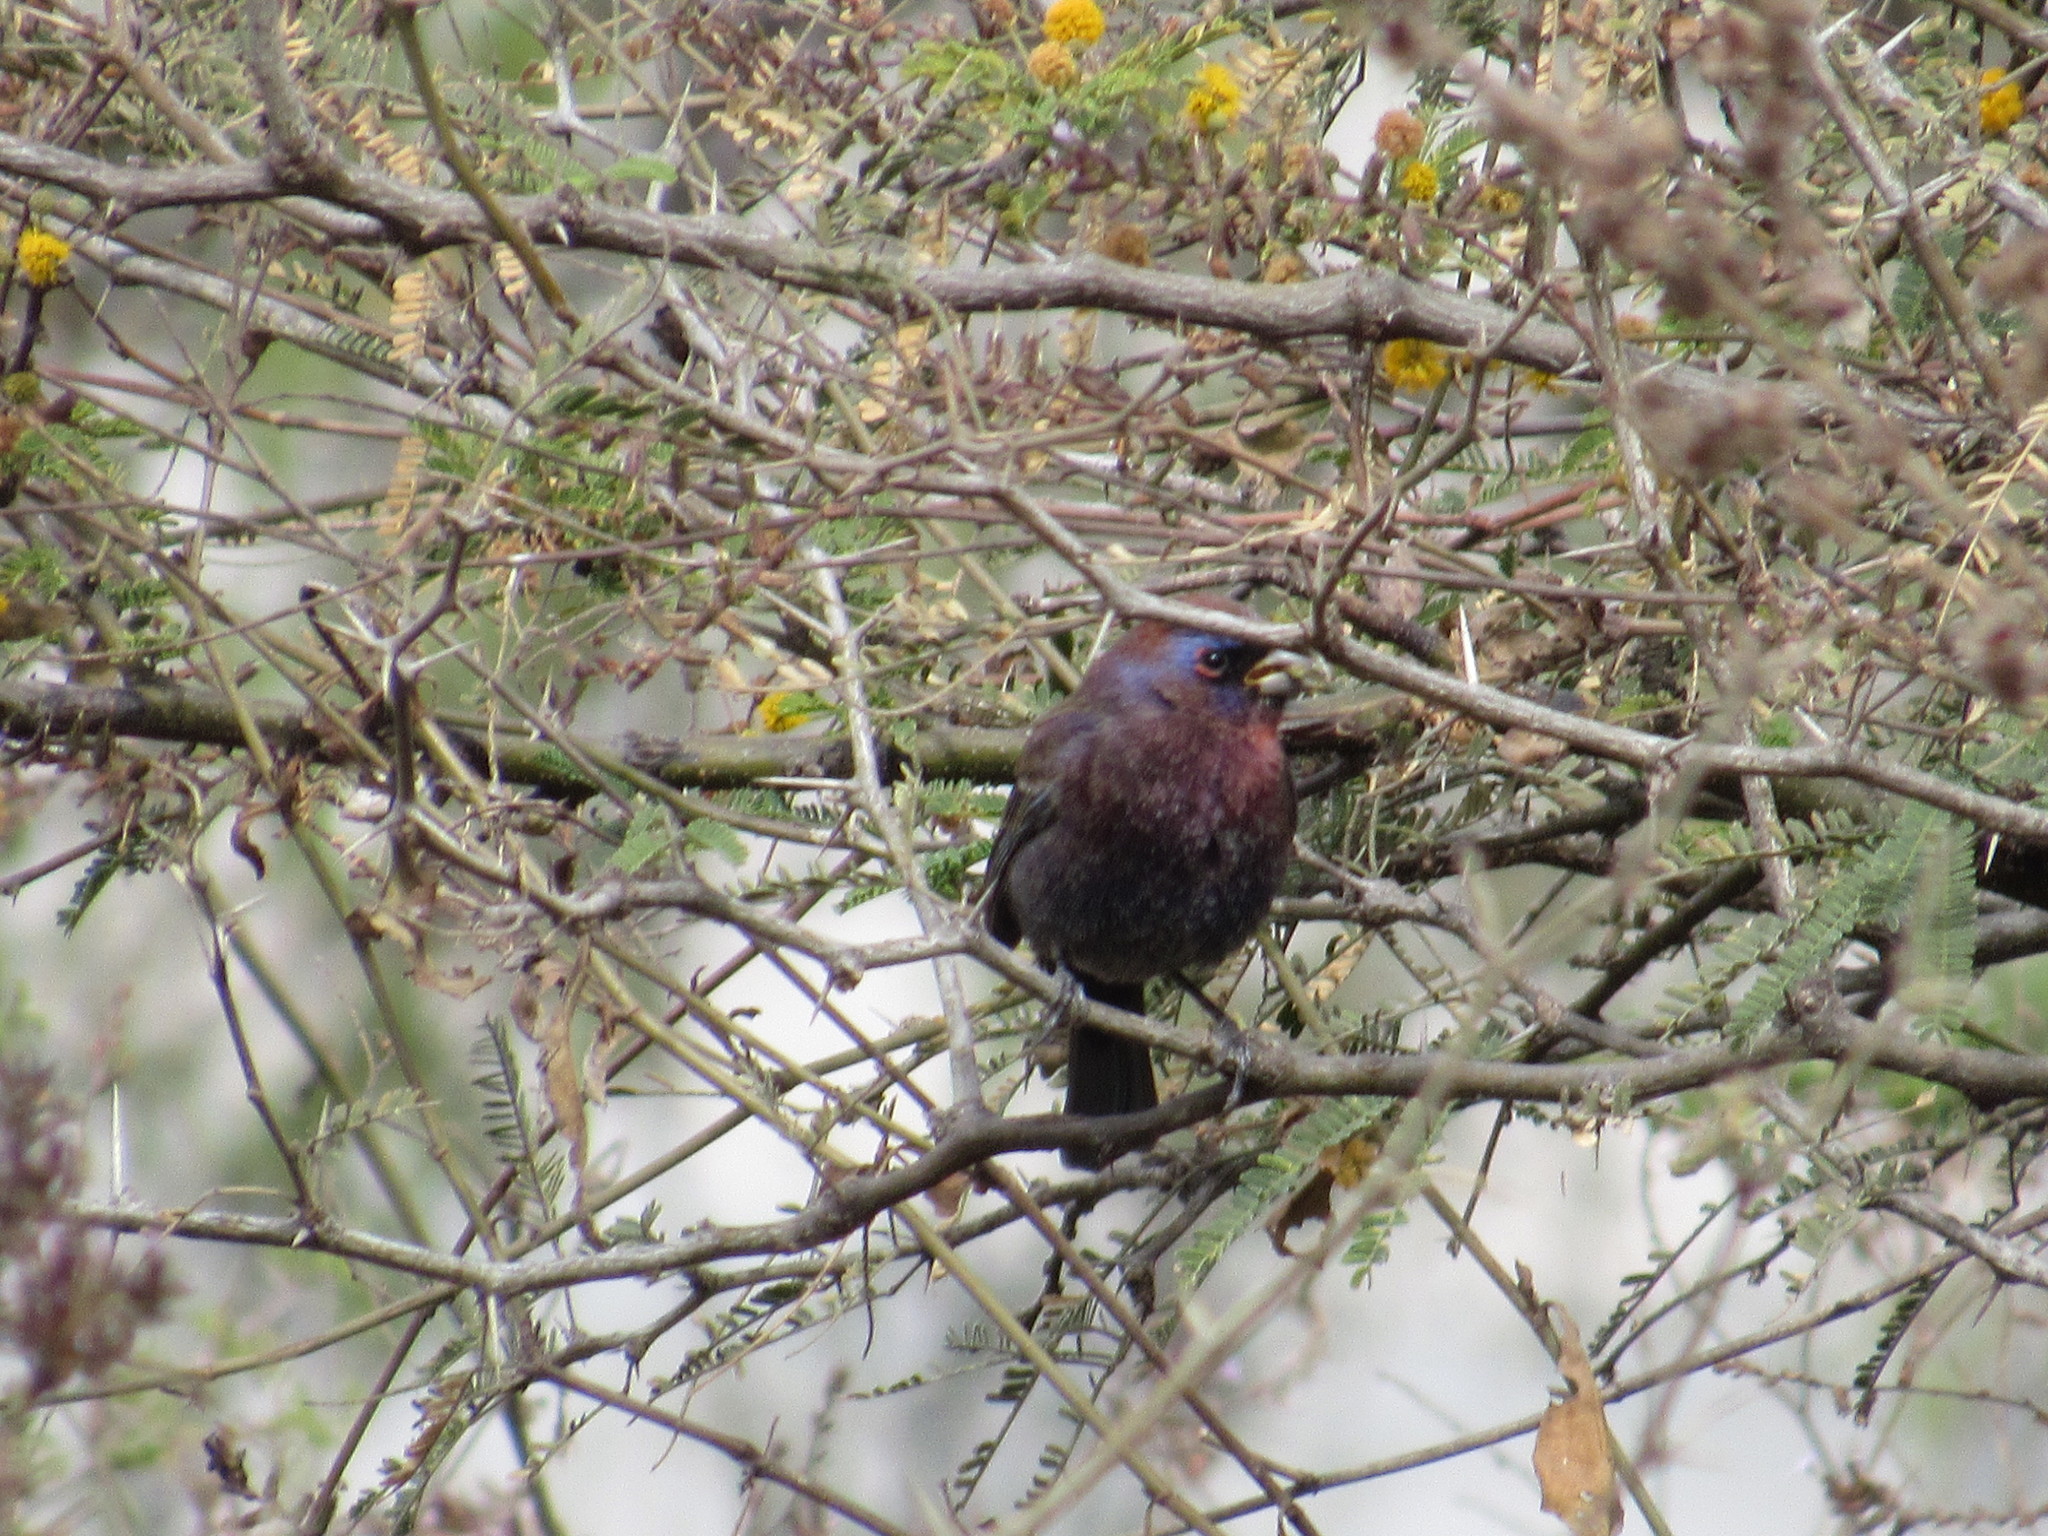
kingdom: Animalia
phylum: Chordata
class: Aves
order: Passeriformes
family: Cardinalidae
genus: Passerina
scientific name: Passerina versicolor
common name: Varied bunting
